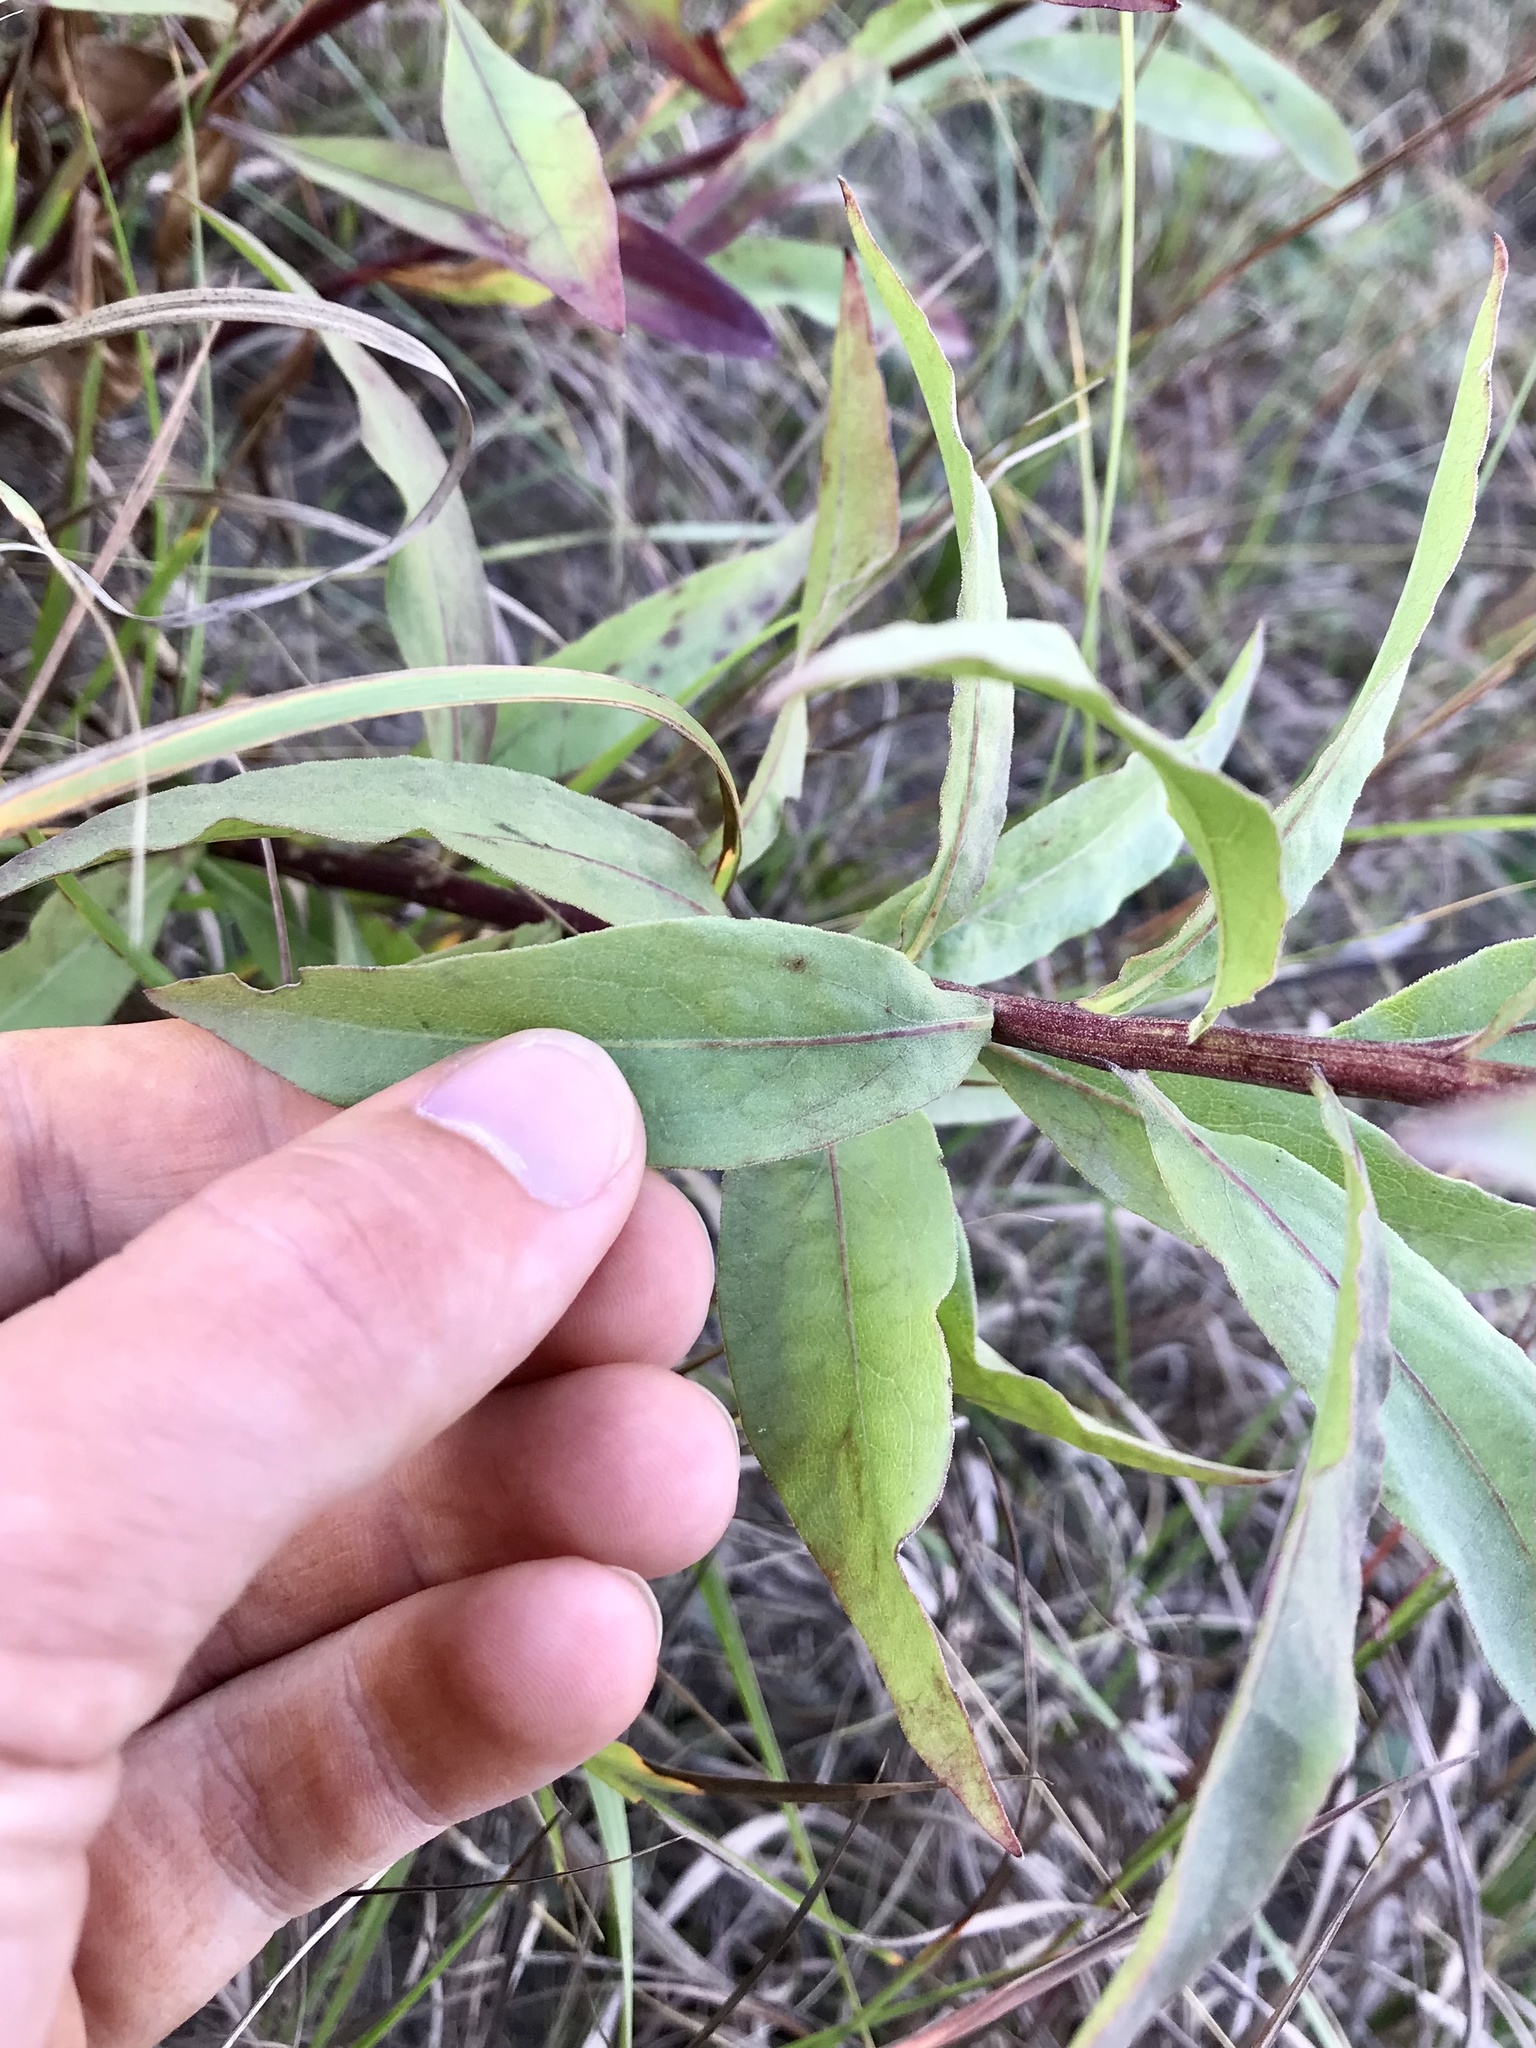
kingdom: Plantae
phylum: Tracheophyta
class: Magnoliopsida
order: Asterales
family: Asteraceae
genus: Solidago
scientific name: Solidago rigidiuscula
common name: Stiff-leaved showy goldenrod
